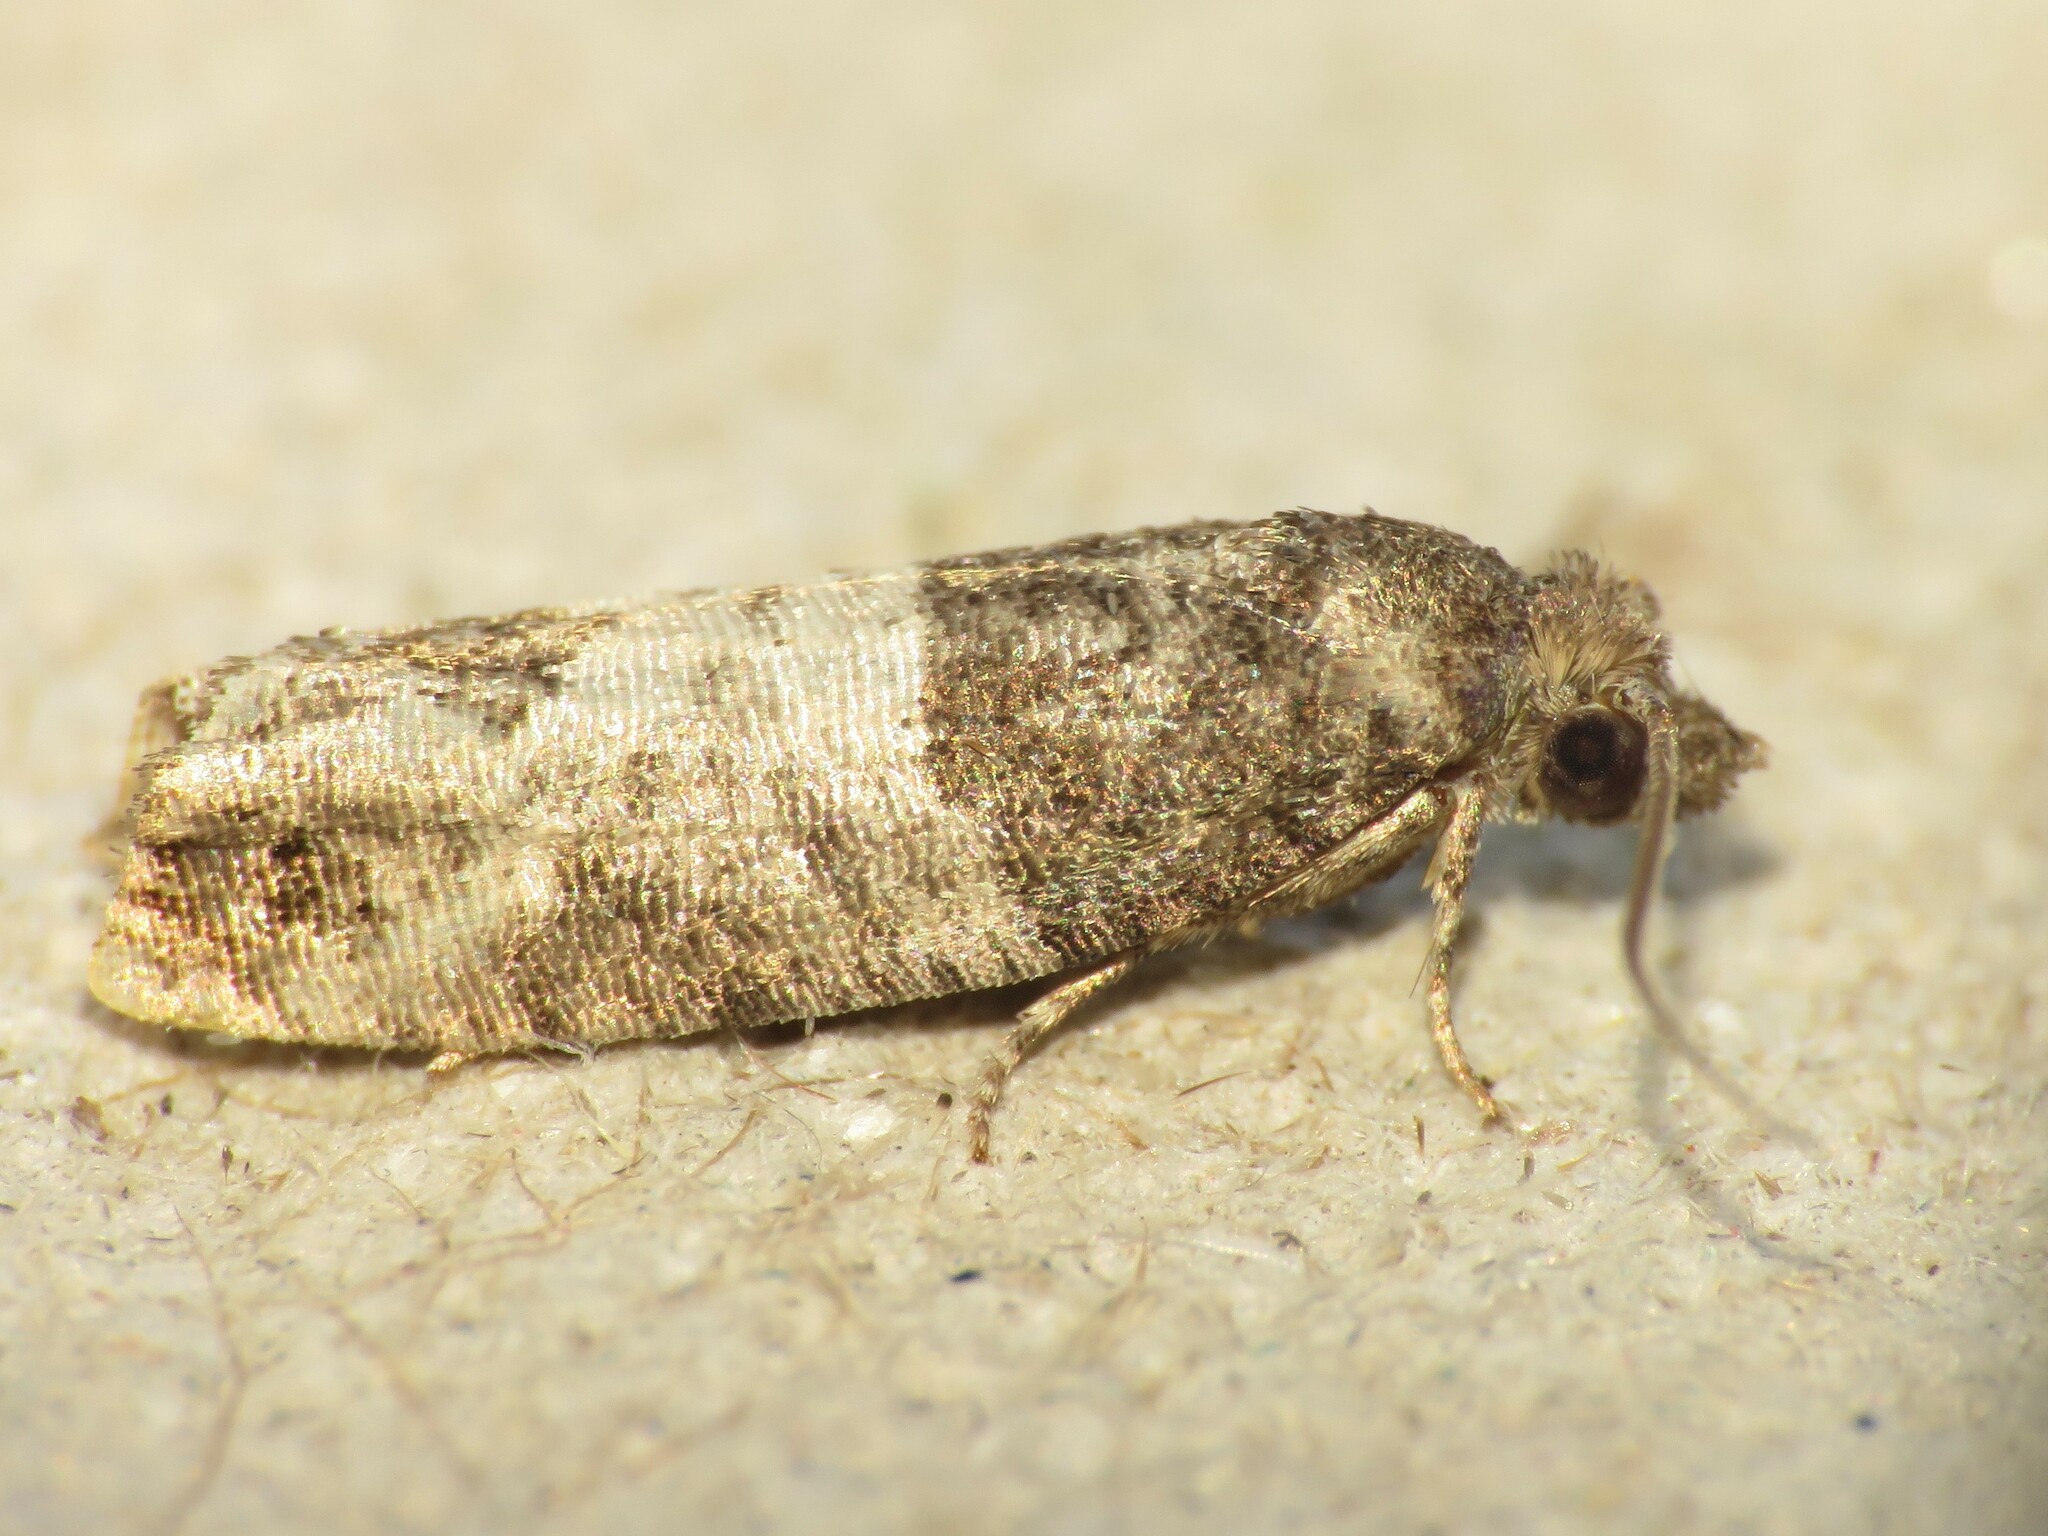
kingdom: Animalia
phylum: Arthropoda
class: Insecta
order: Lepidoptera
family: Tortricidae
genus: Spilonota
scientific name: Spilonota ocellana
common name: Bud moth
